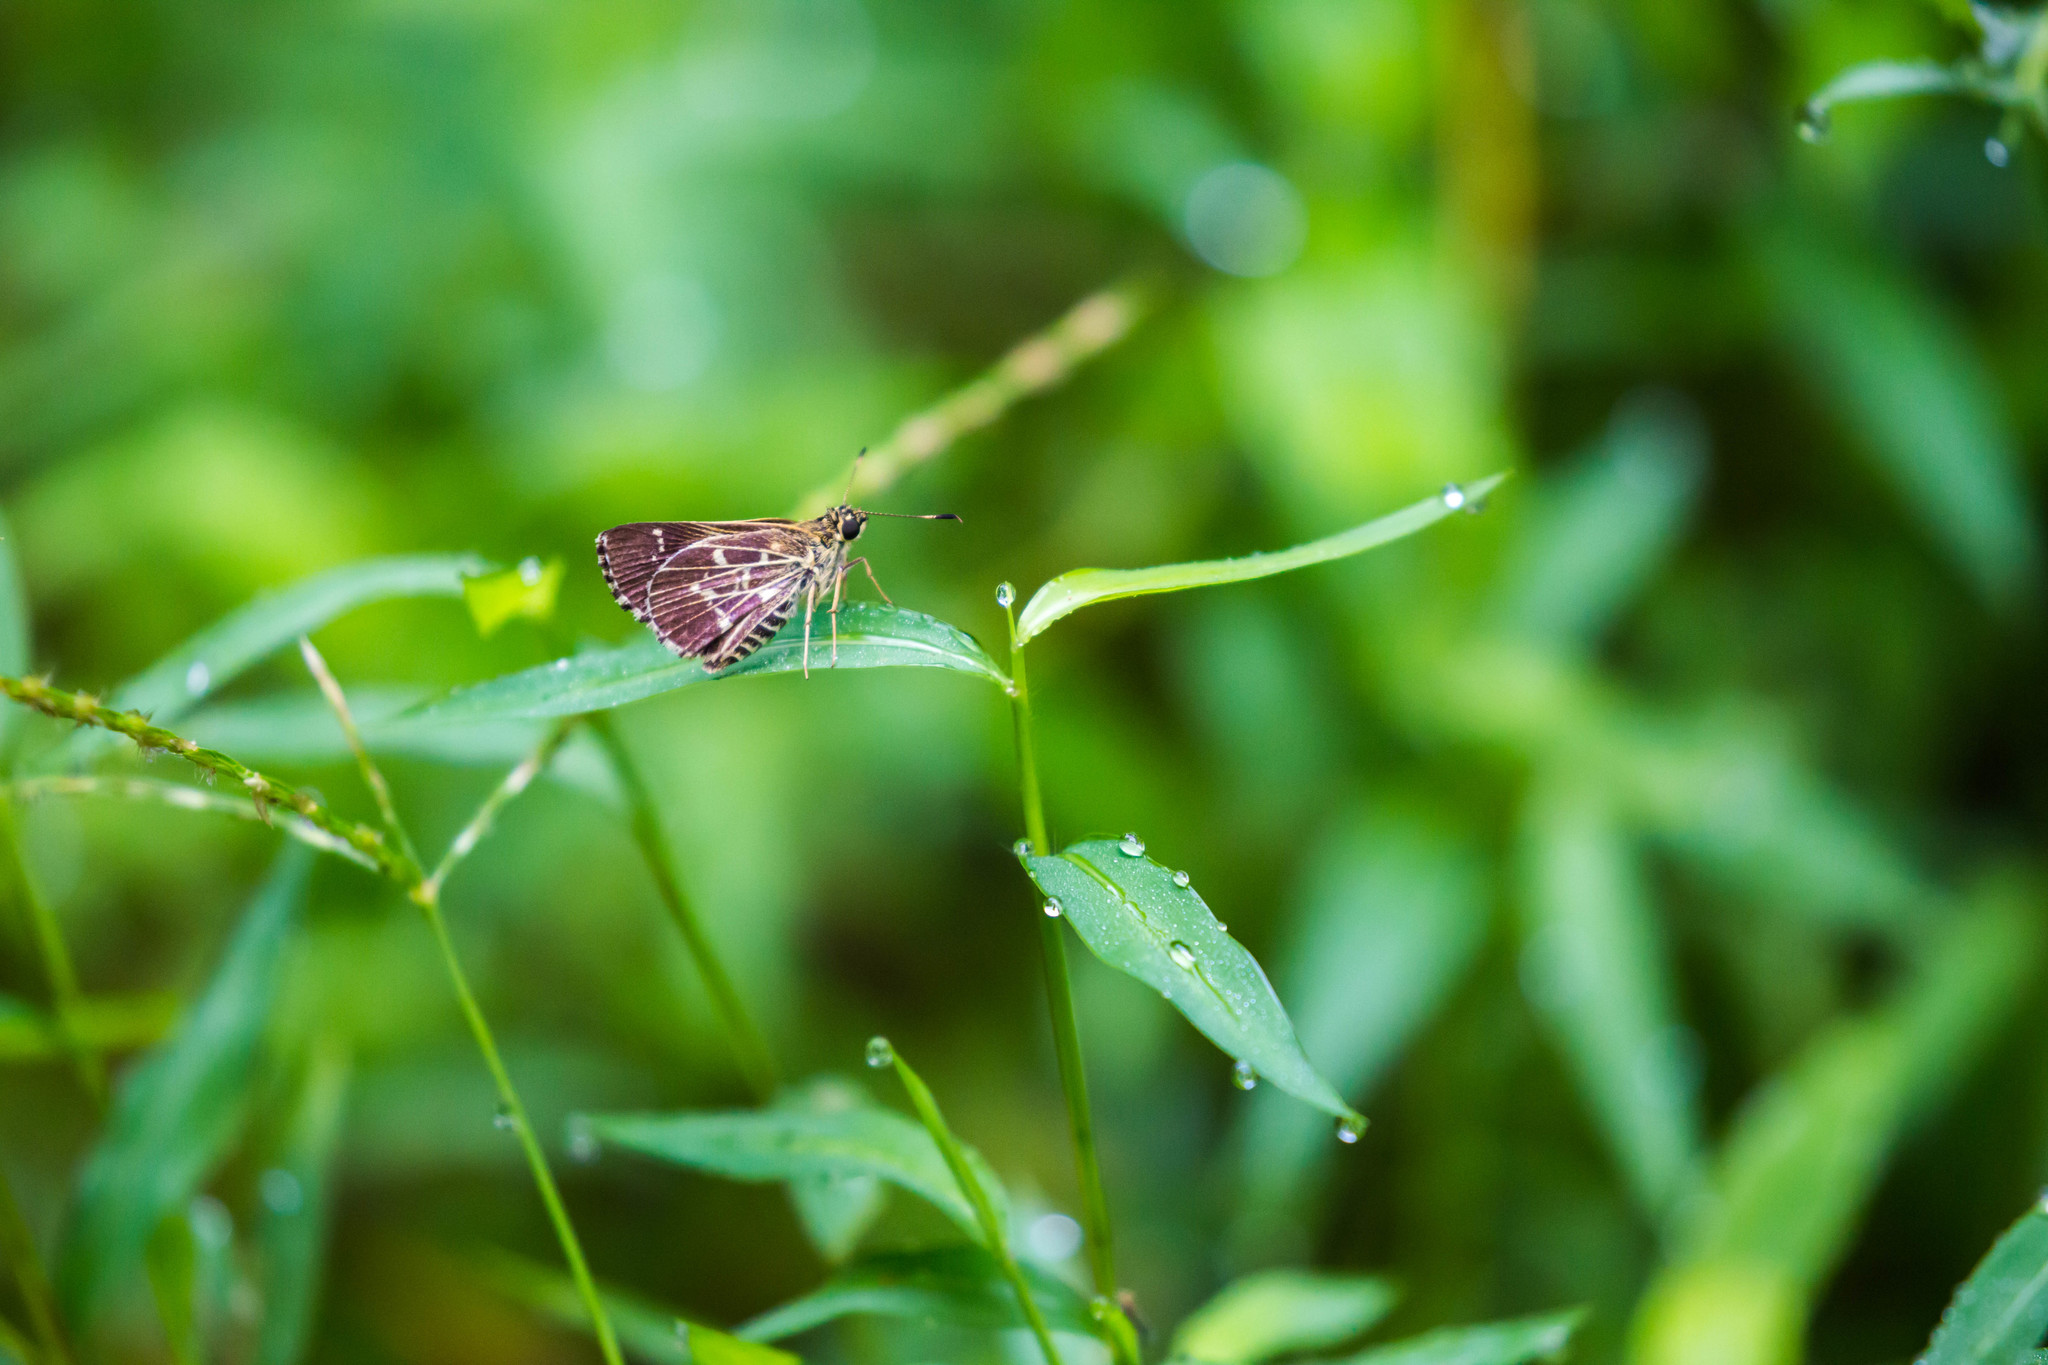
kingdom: Animalia
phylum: Arthropoda
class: Insecta
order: Lepidoptera
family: Hesperiidae
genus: Mastor
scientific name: Mastor aesculapius
